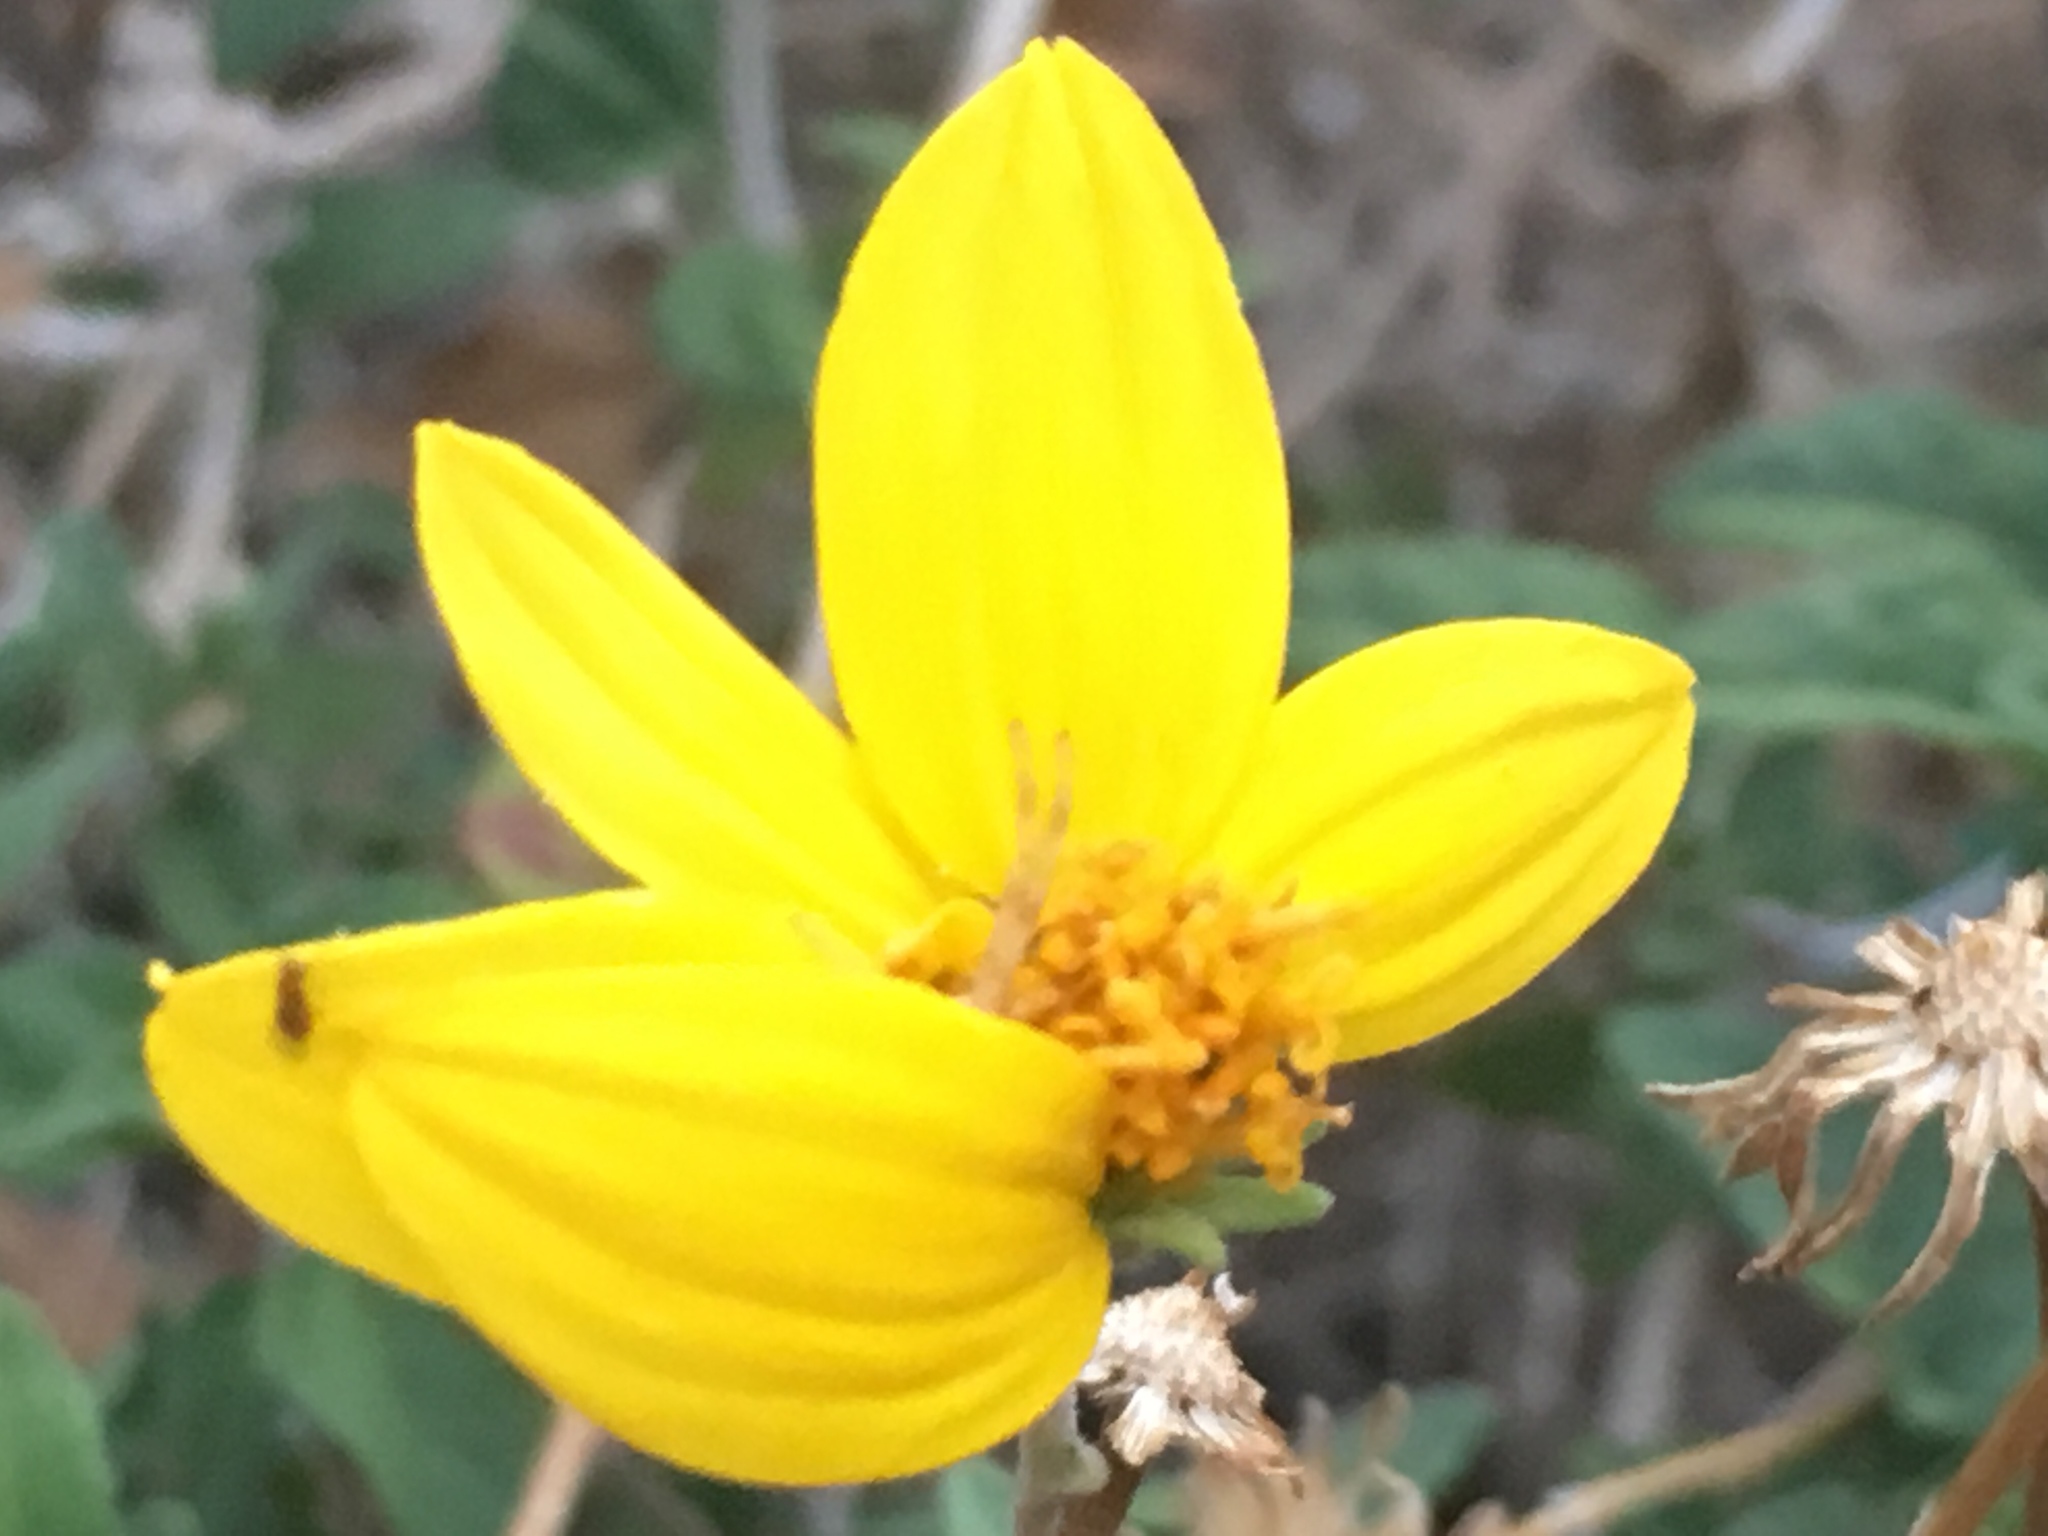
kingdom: Plantae
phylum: Tracheophyta
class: Magnoliopsida
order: Asterales
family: Asteraceae
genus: Bahiopsis
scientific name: Bahiopsis parishii
